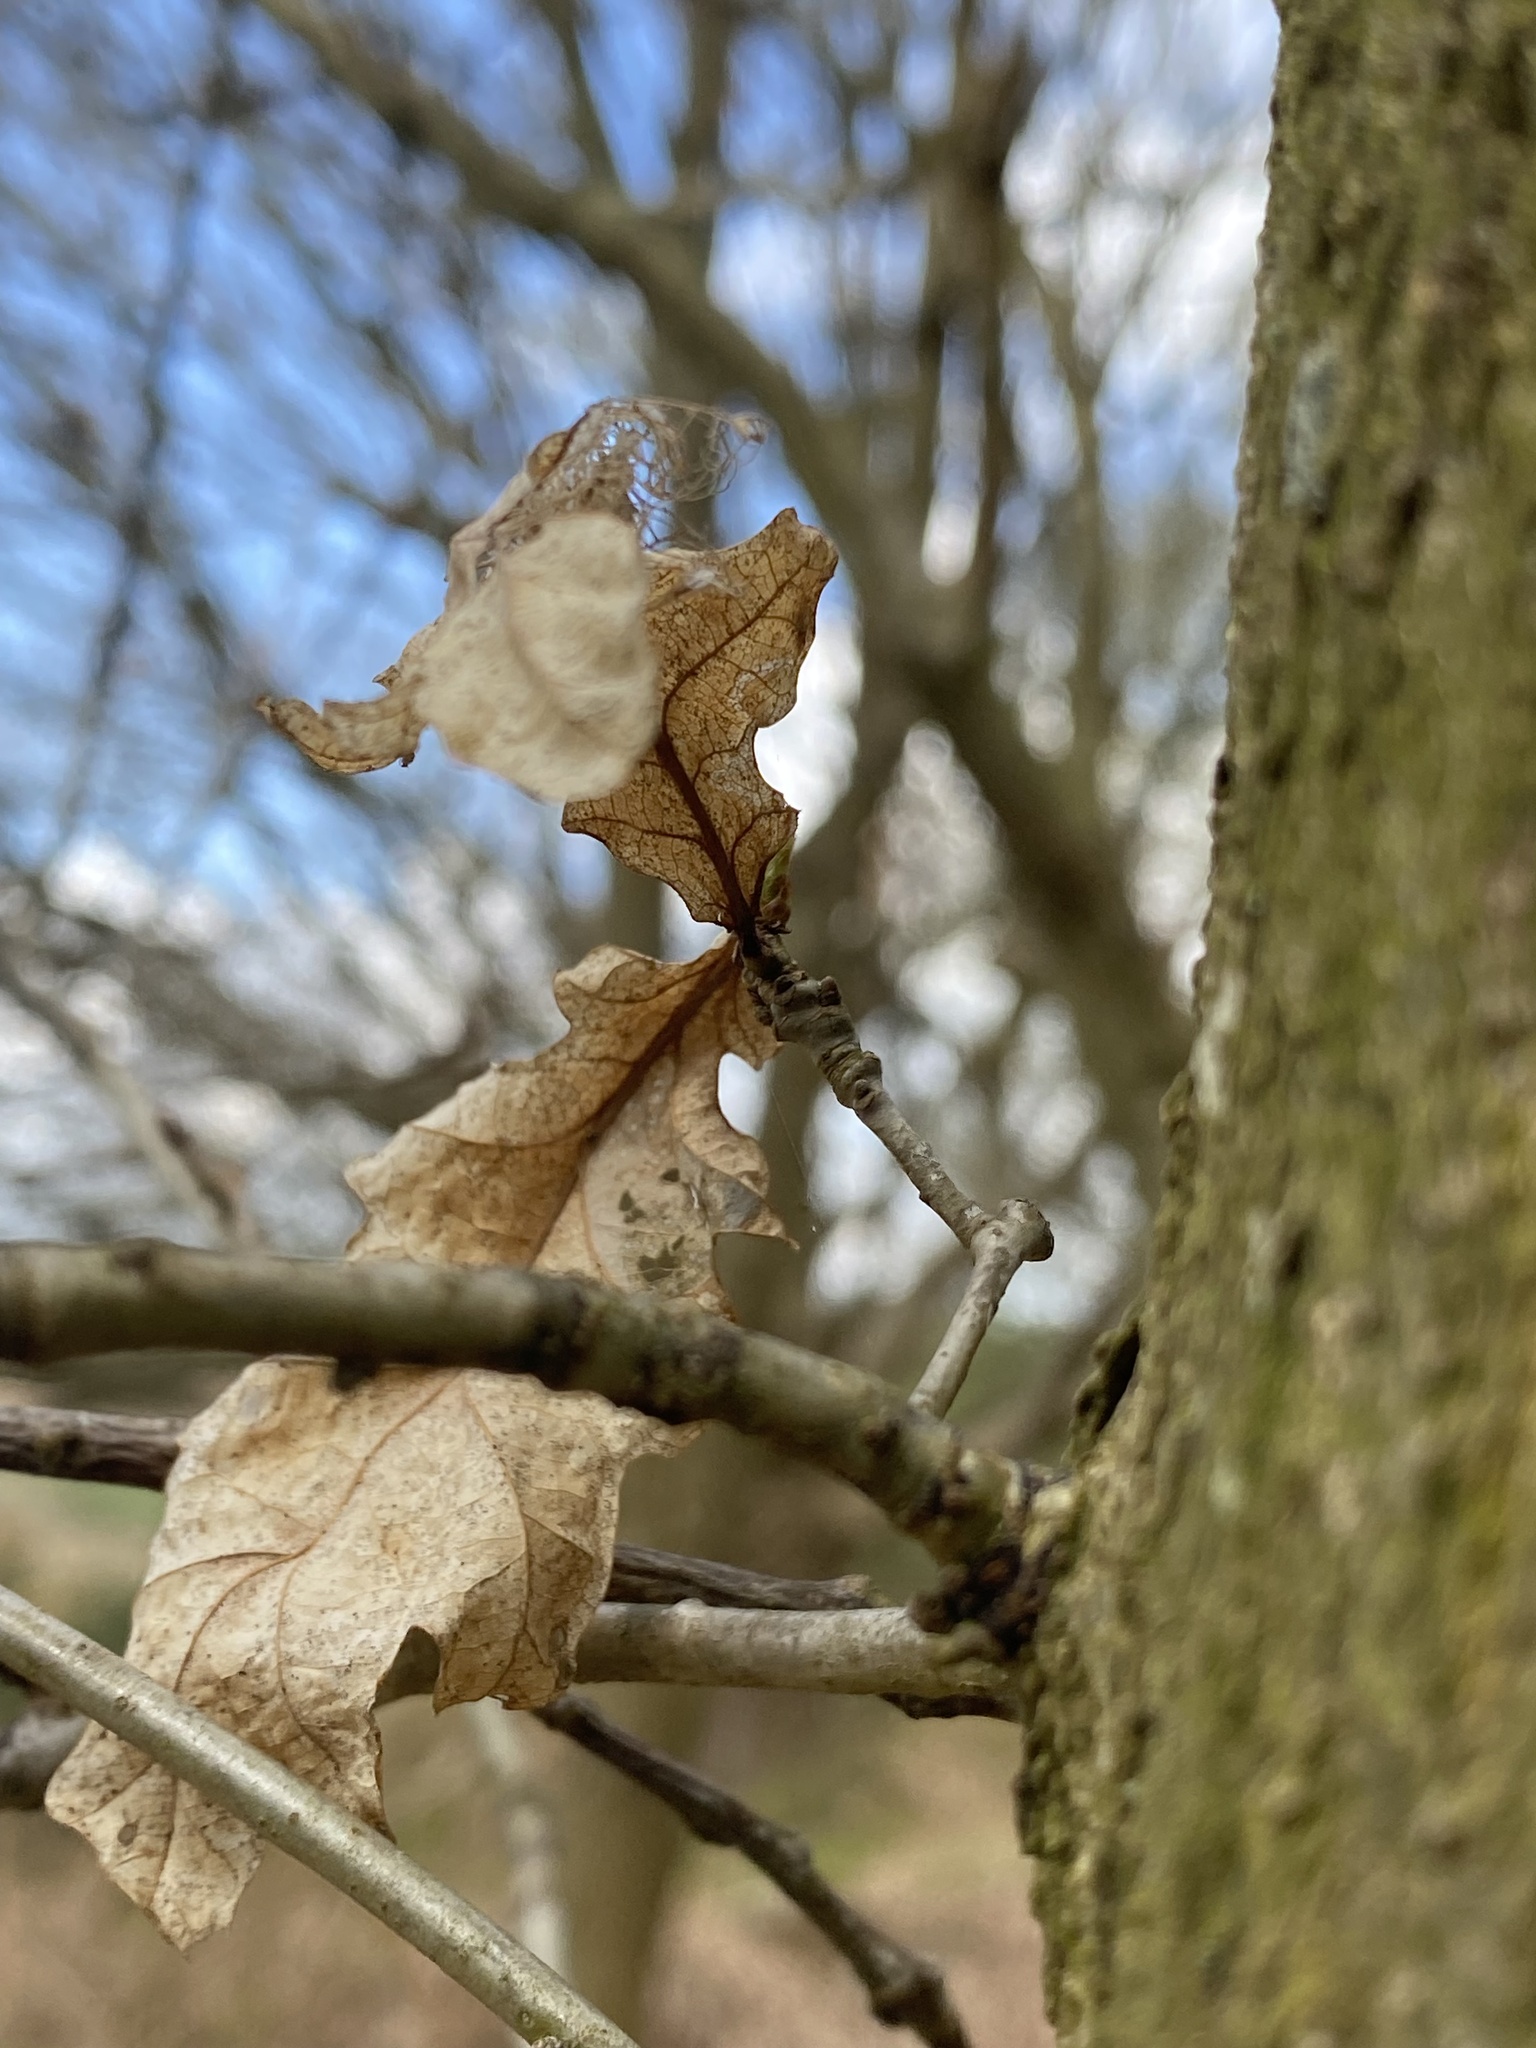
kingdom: Plantae
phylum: Tracheophyta
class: Magnoliopsida
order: Fagales
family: Fagaceae
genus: Quercus
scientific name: Quercus robur
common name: Pedunculate oak
